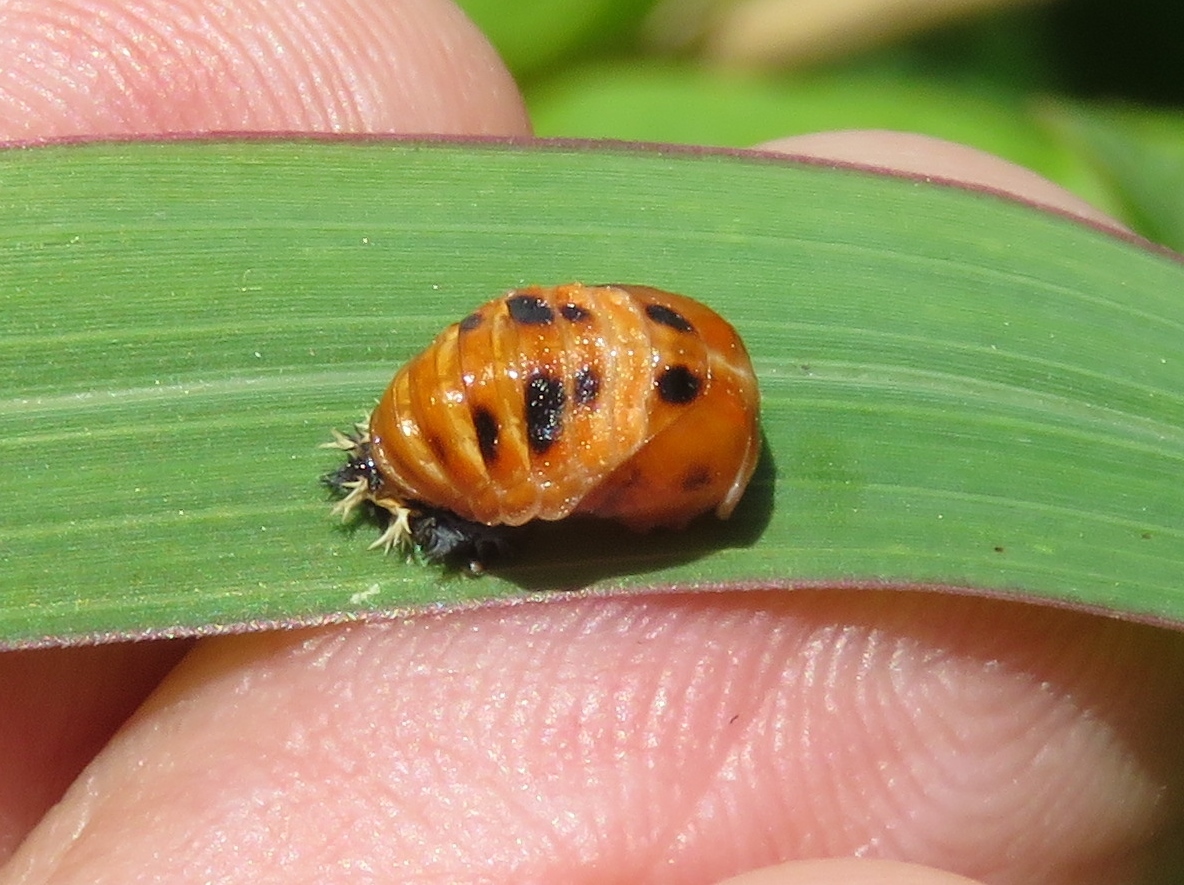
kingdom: Animalia
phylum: Arthropoda
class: Insecta
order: Coleoptera
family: Coccinellidae
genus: Harmonia
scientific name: Harmonia axyridis
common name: Harlequin ladybird
